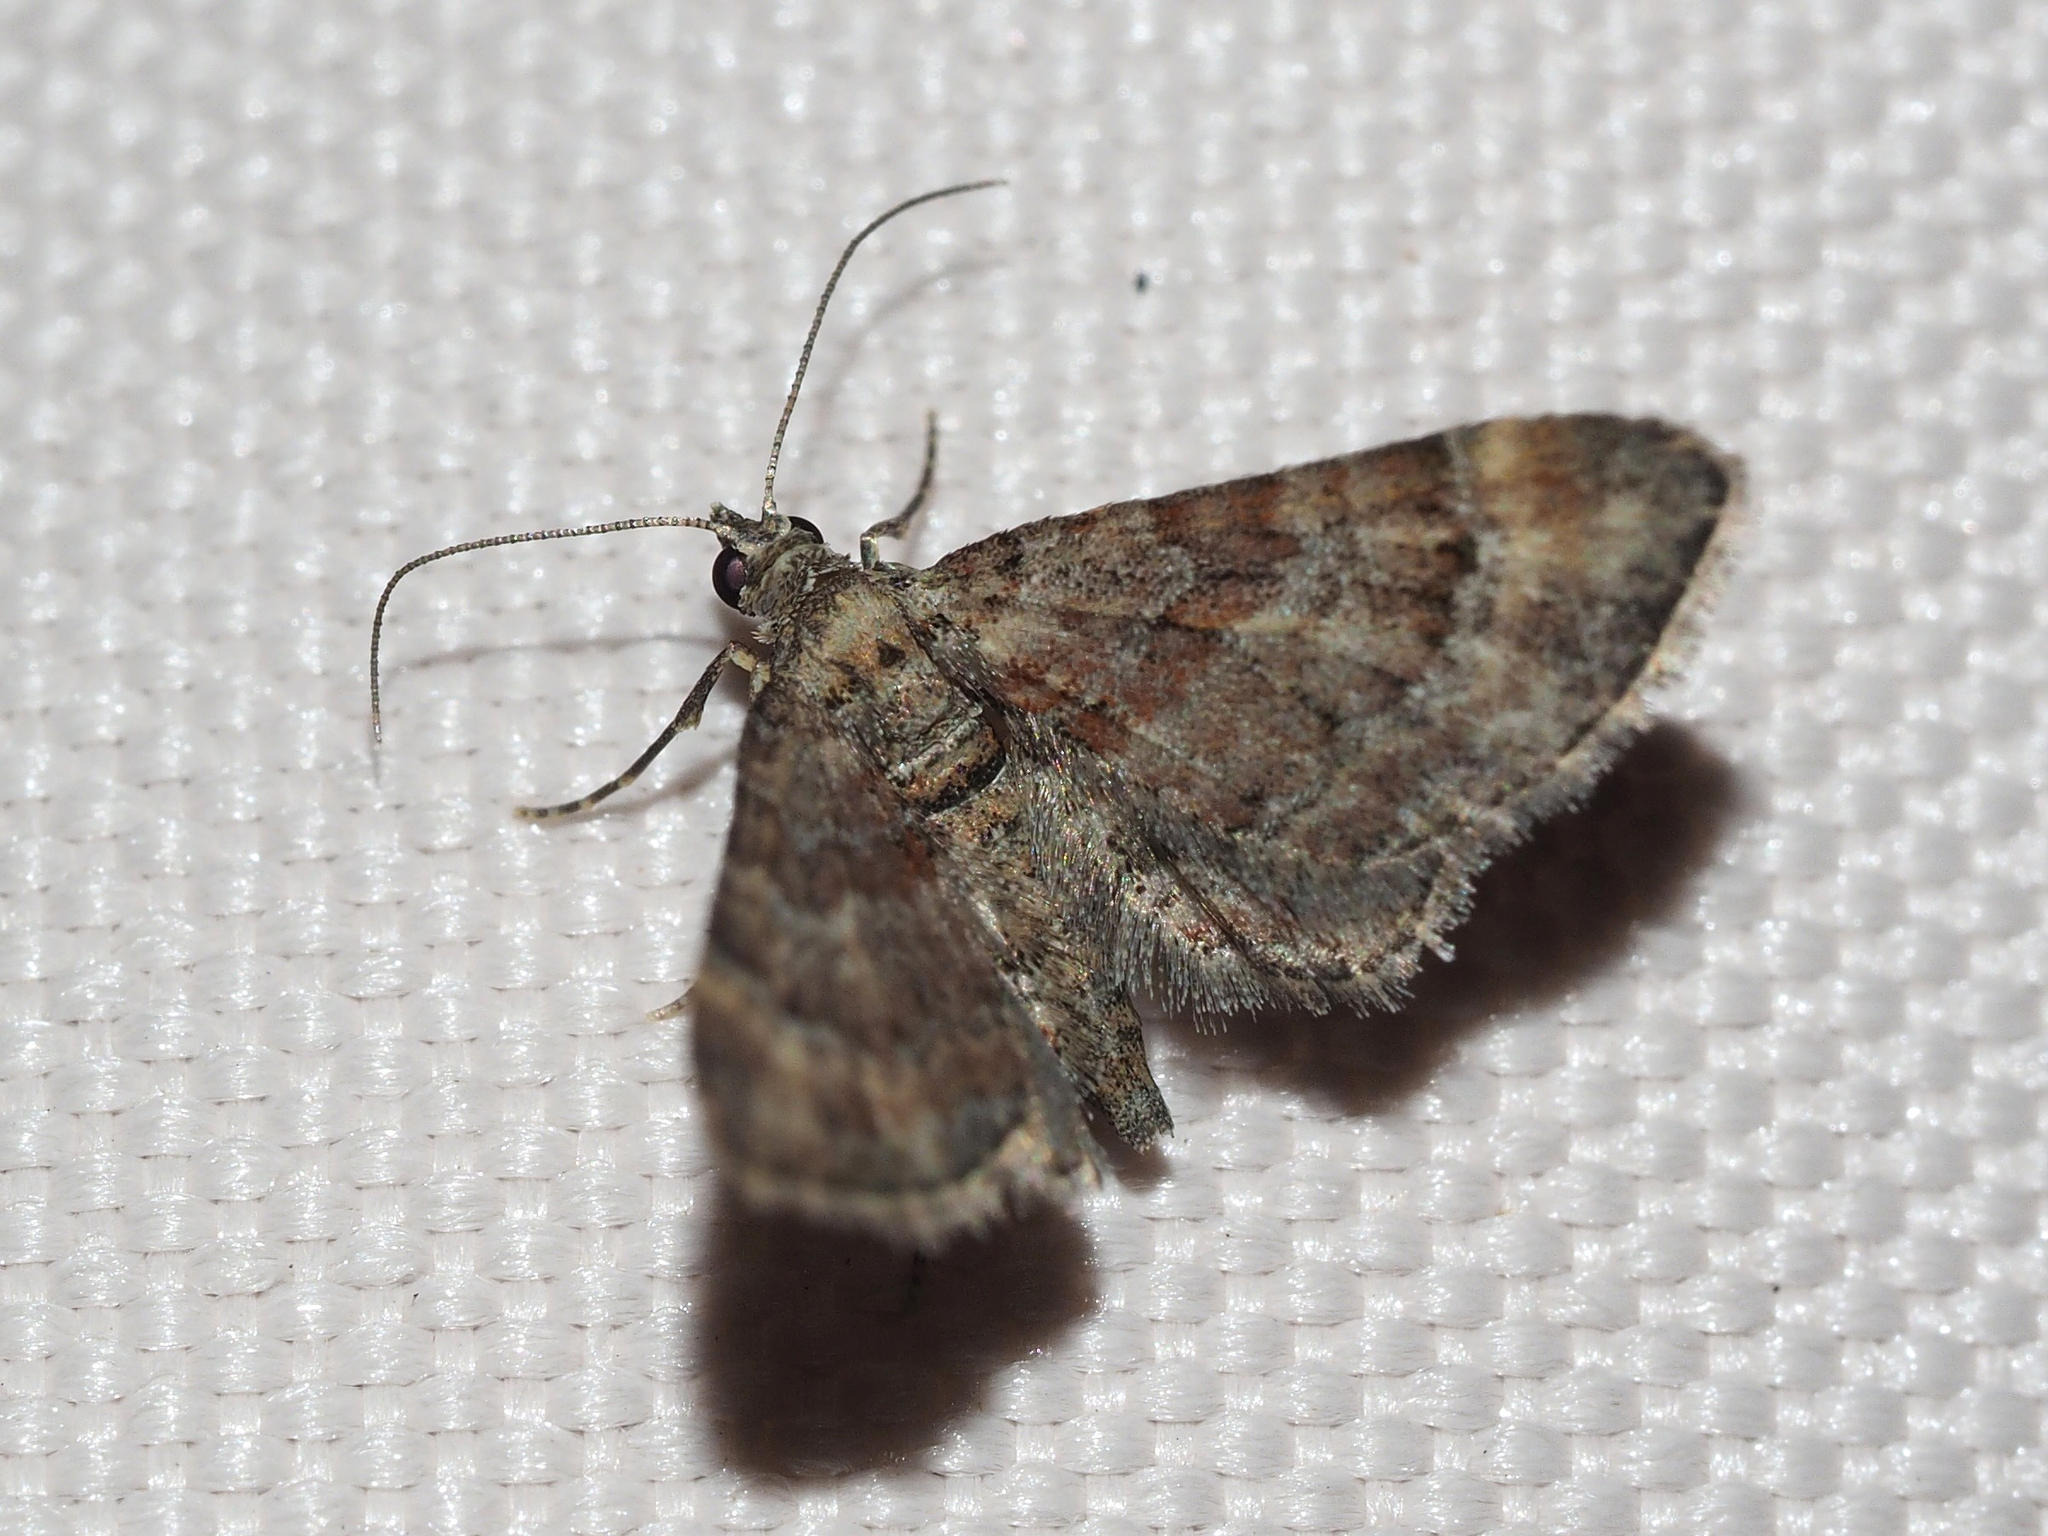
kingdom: Animalia
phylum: Arthropoda
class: Insecta
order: Lepidoptera
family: Geometridae
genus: Gymnoscelis
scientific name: Gymnoscelis rufifasciata
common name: Double-striped pug
